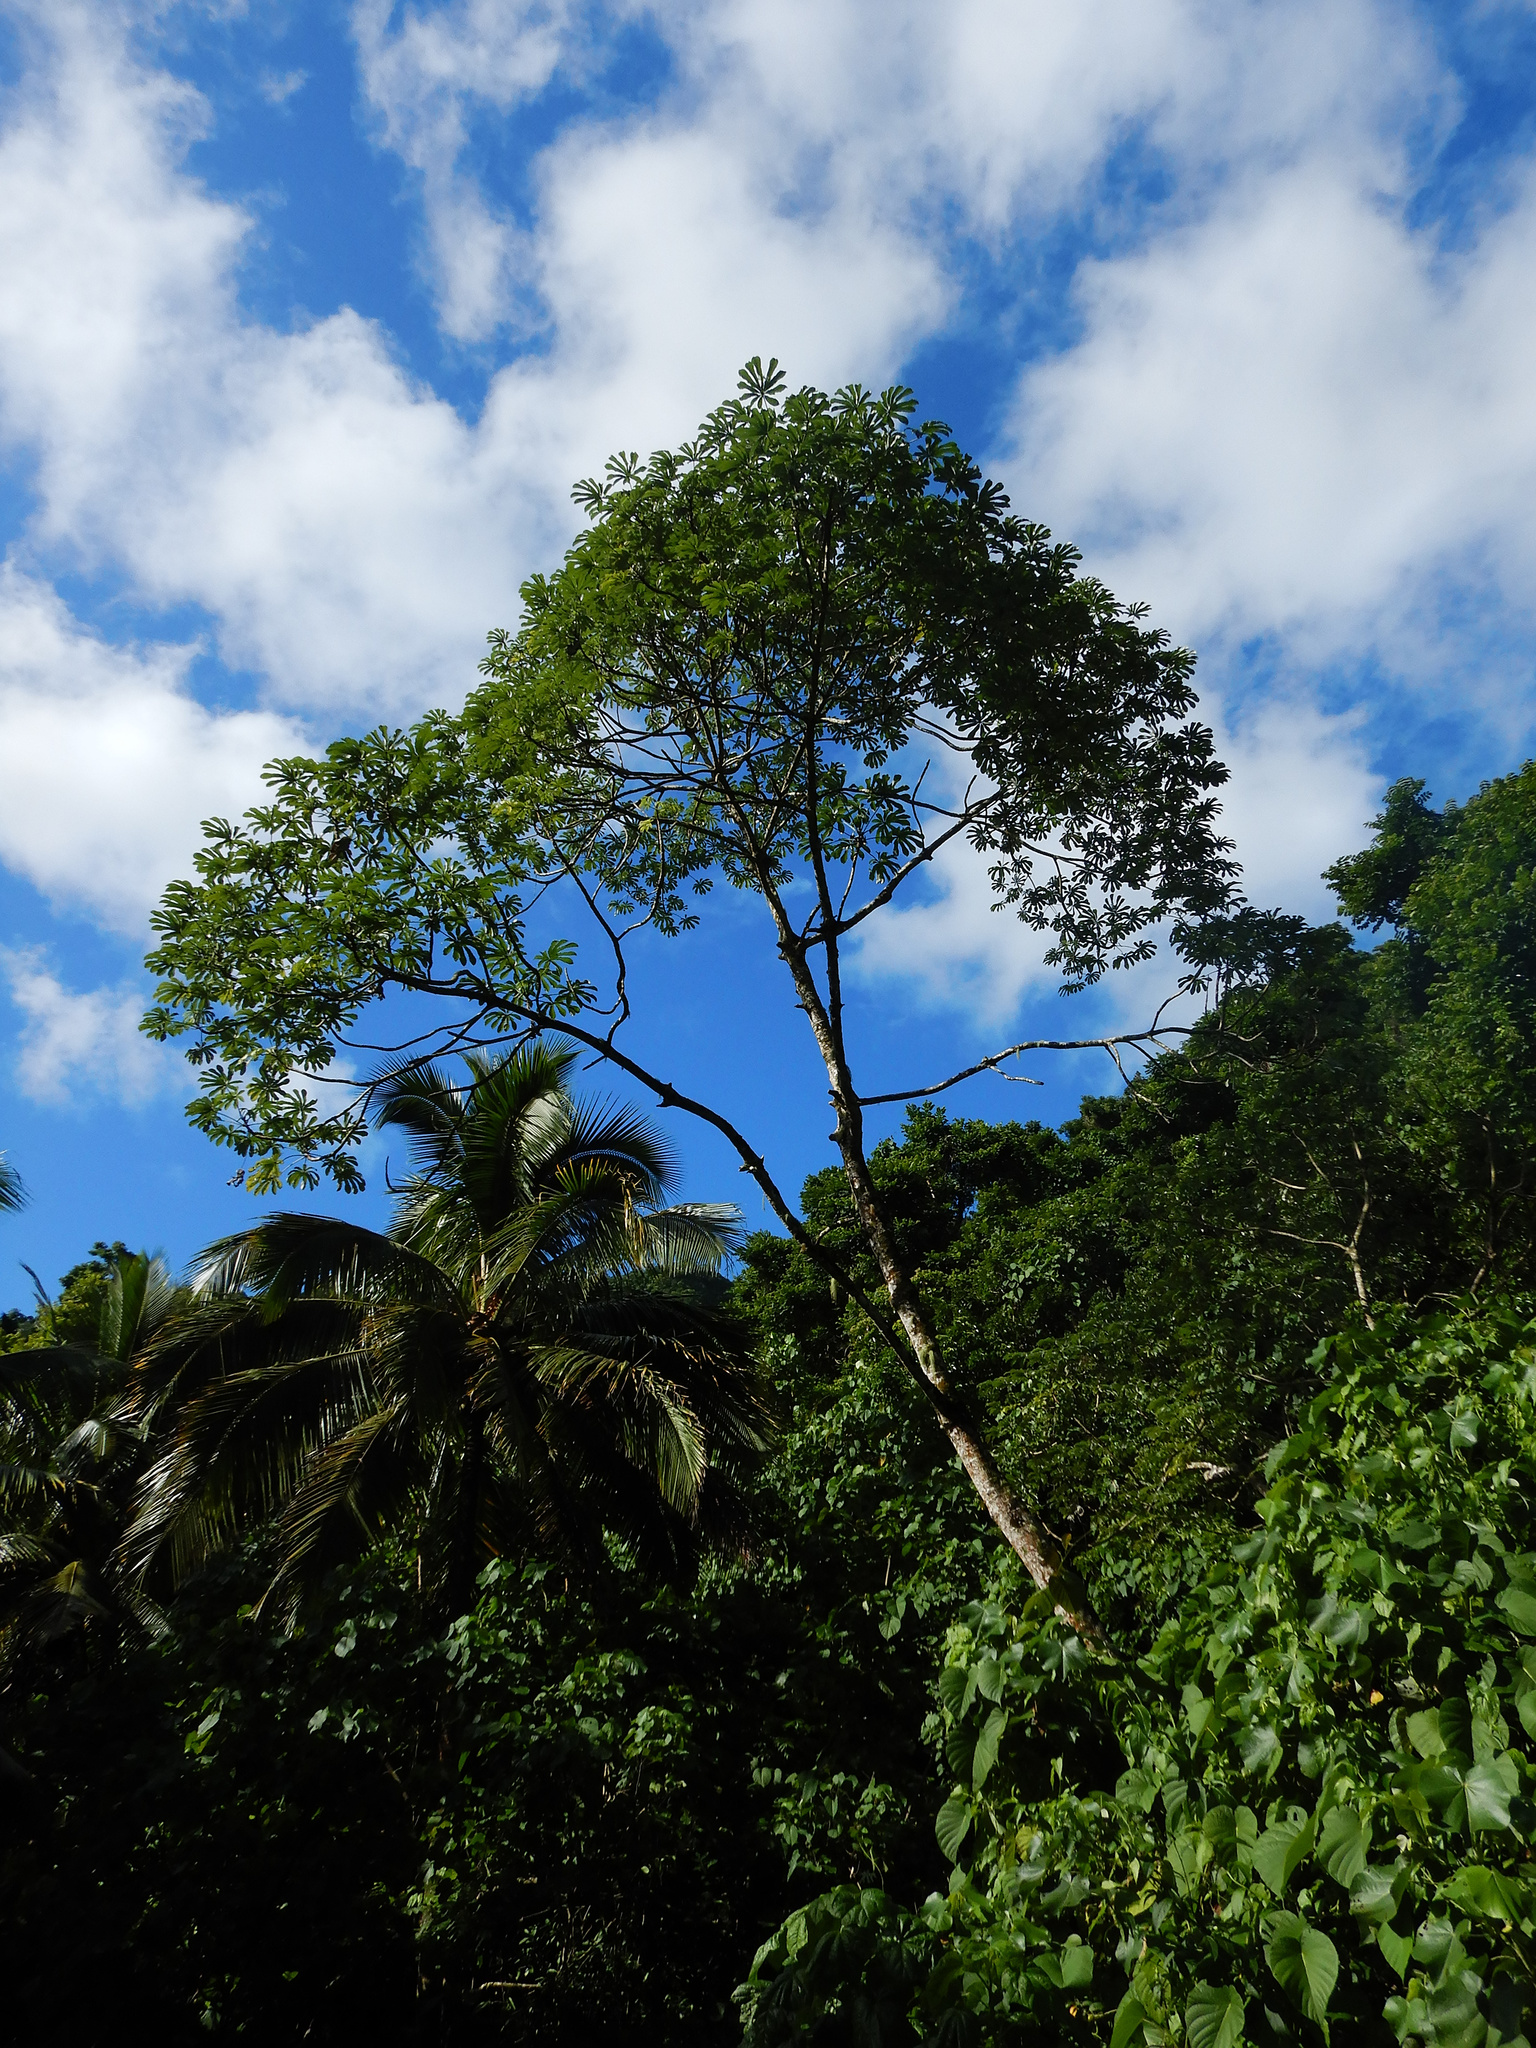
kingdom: Plantae
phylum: Tracheophyta
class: Magnoliopsida
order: Rosales
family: Urticaceae
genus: Cecropia
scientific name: Cecropia pachystachya
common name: Ambay pumpwood
